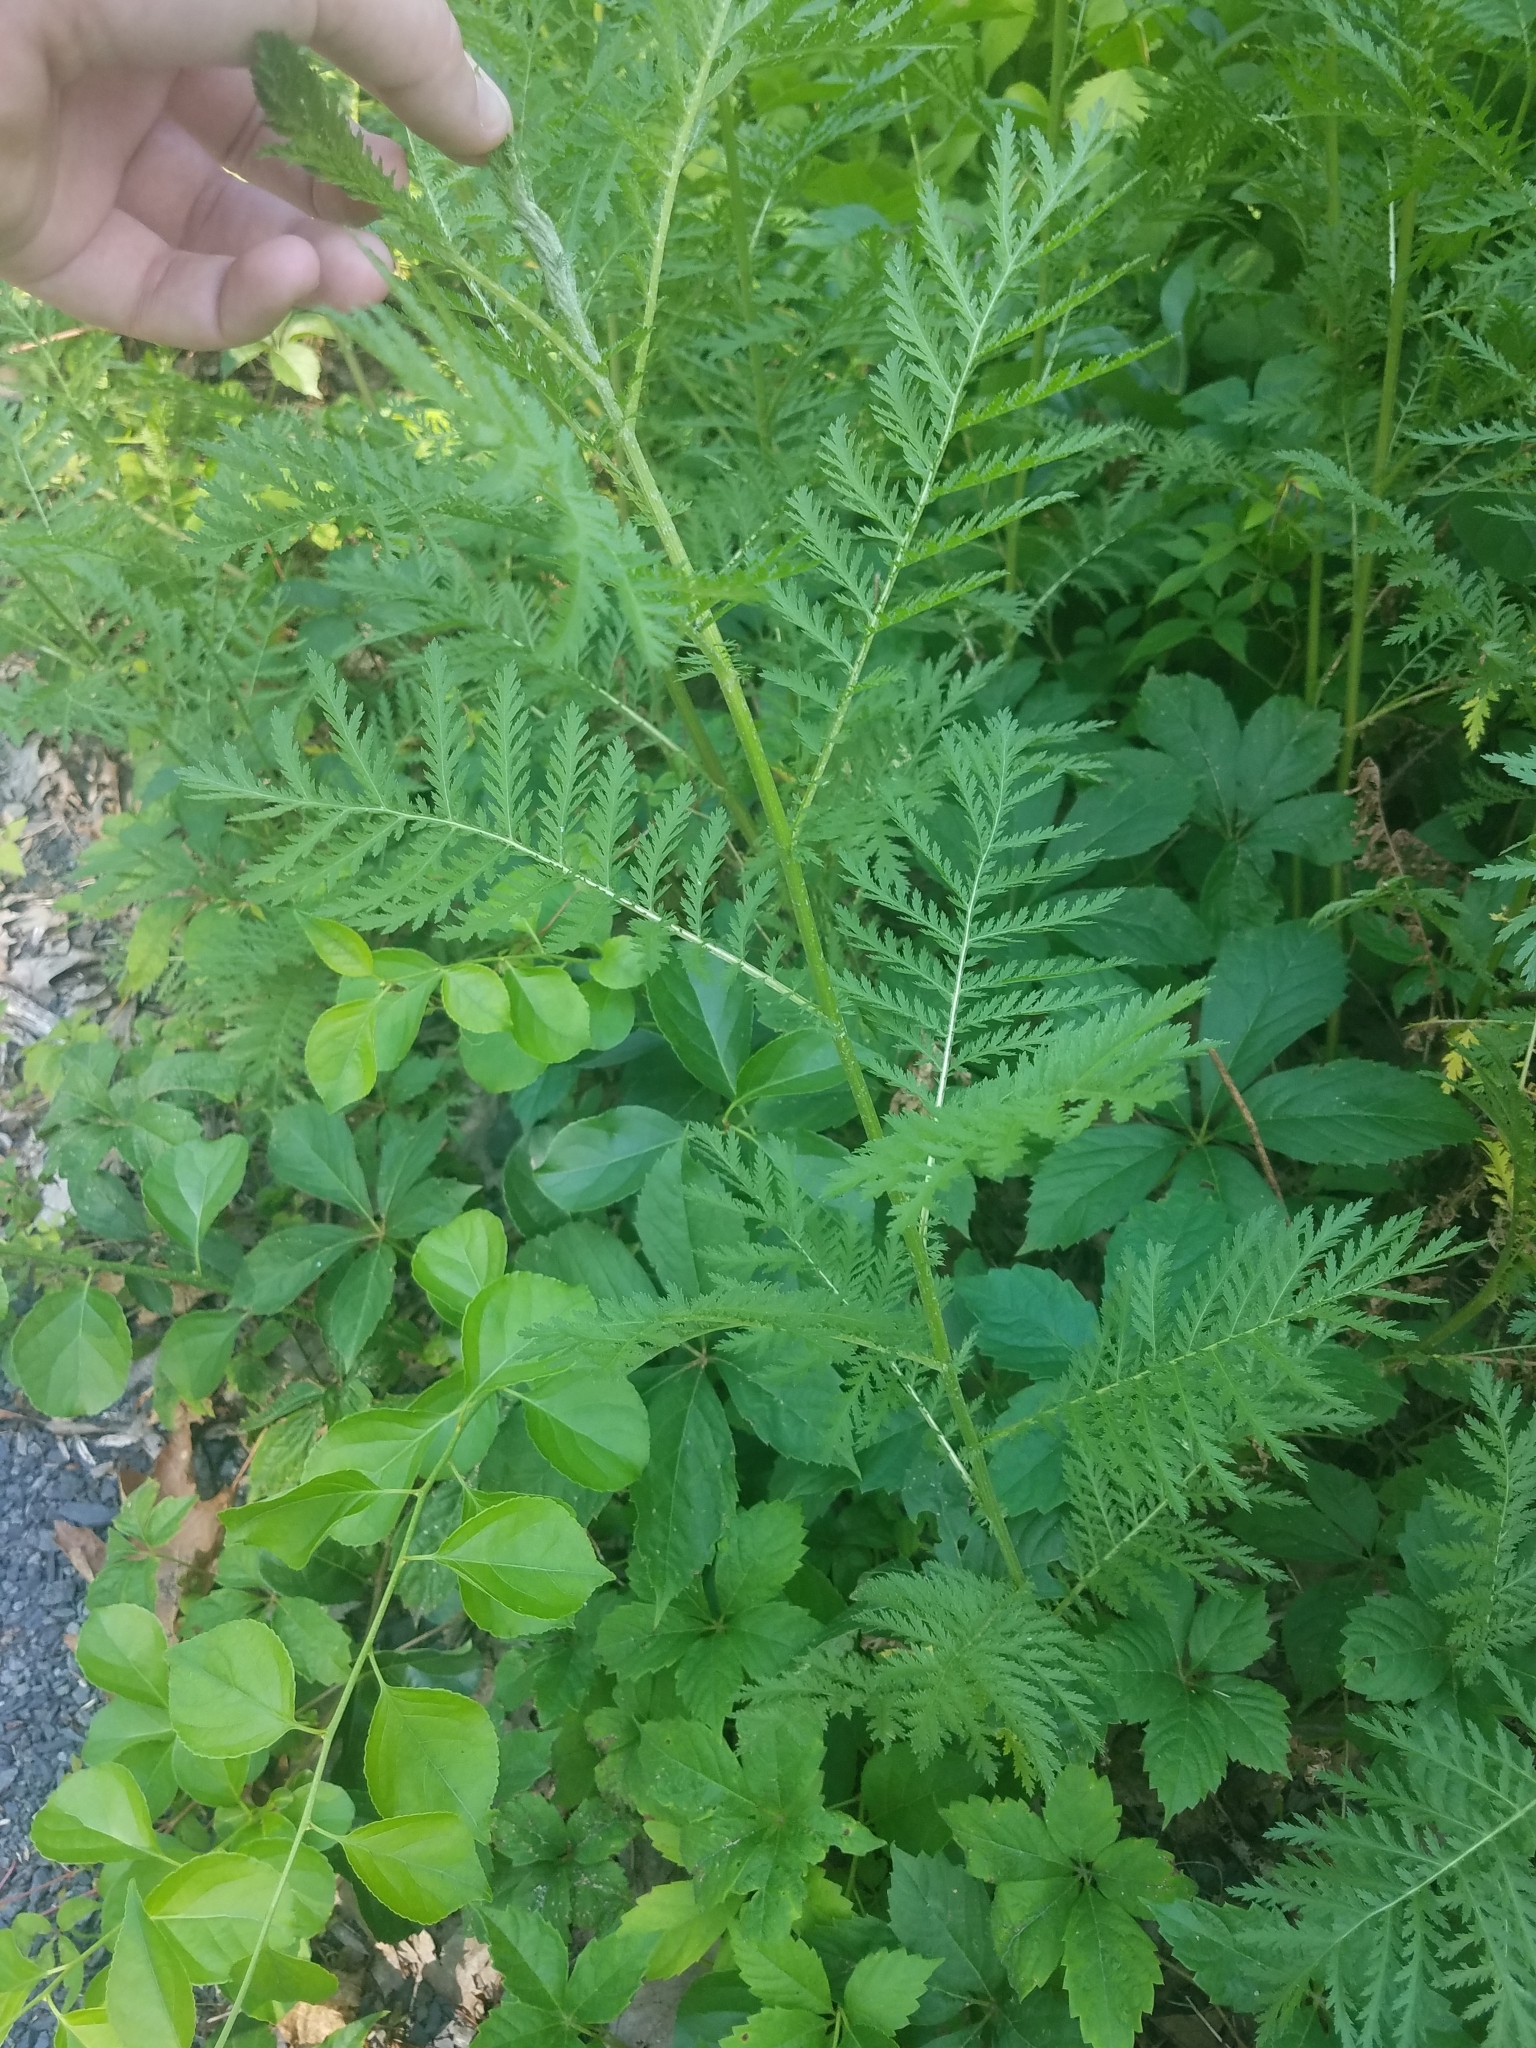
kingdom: Plantae
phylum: Tracheophyta
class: Magnoliopsida
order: Asterales
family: Asteraceae
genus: Tanacetum
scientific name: Tanacetum vulgare
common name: Common tansy
